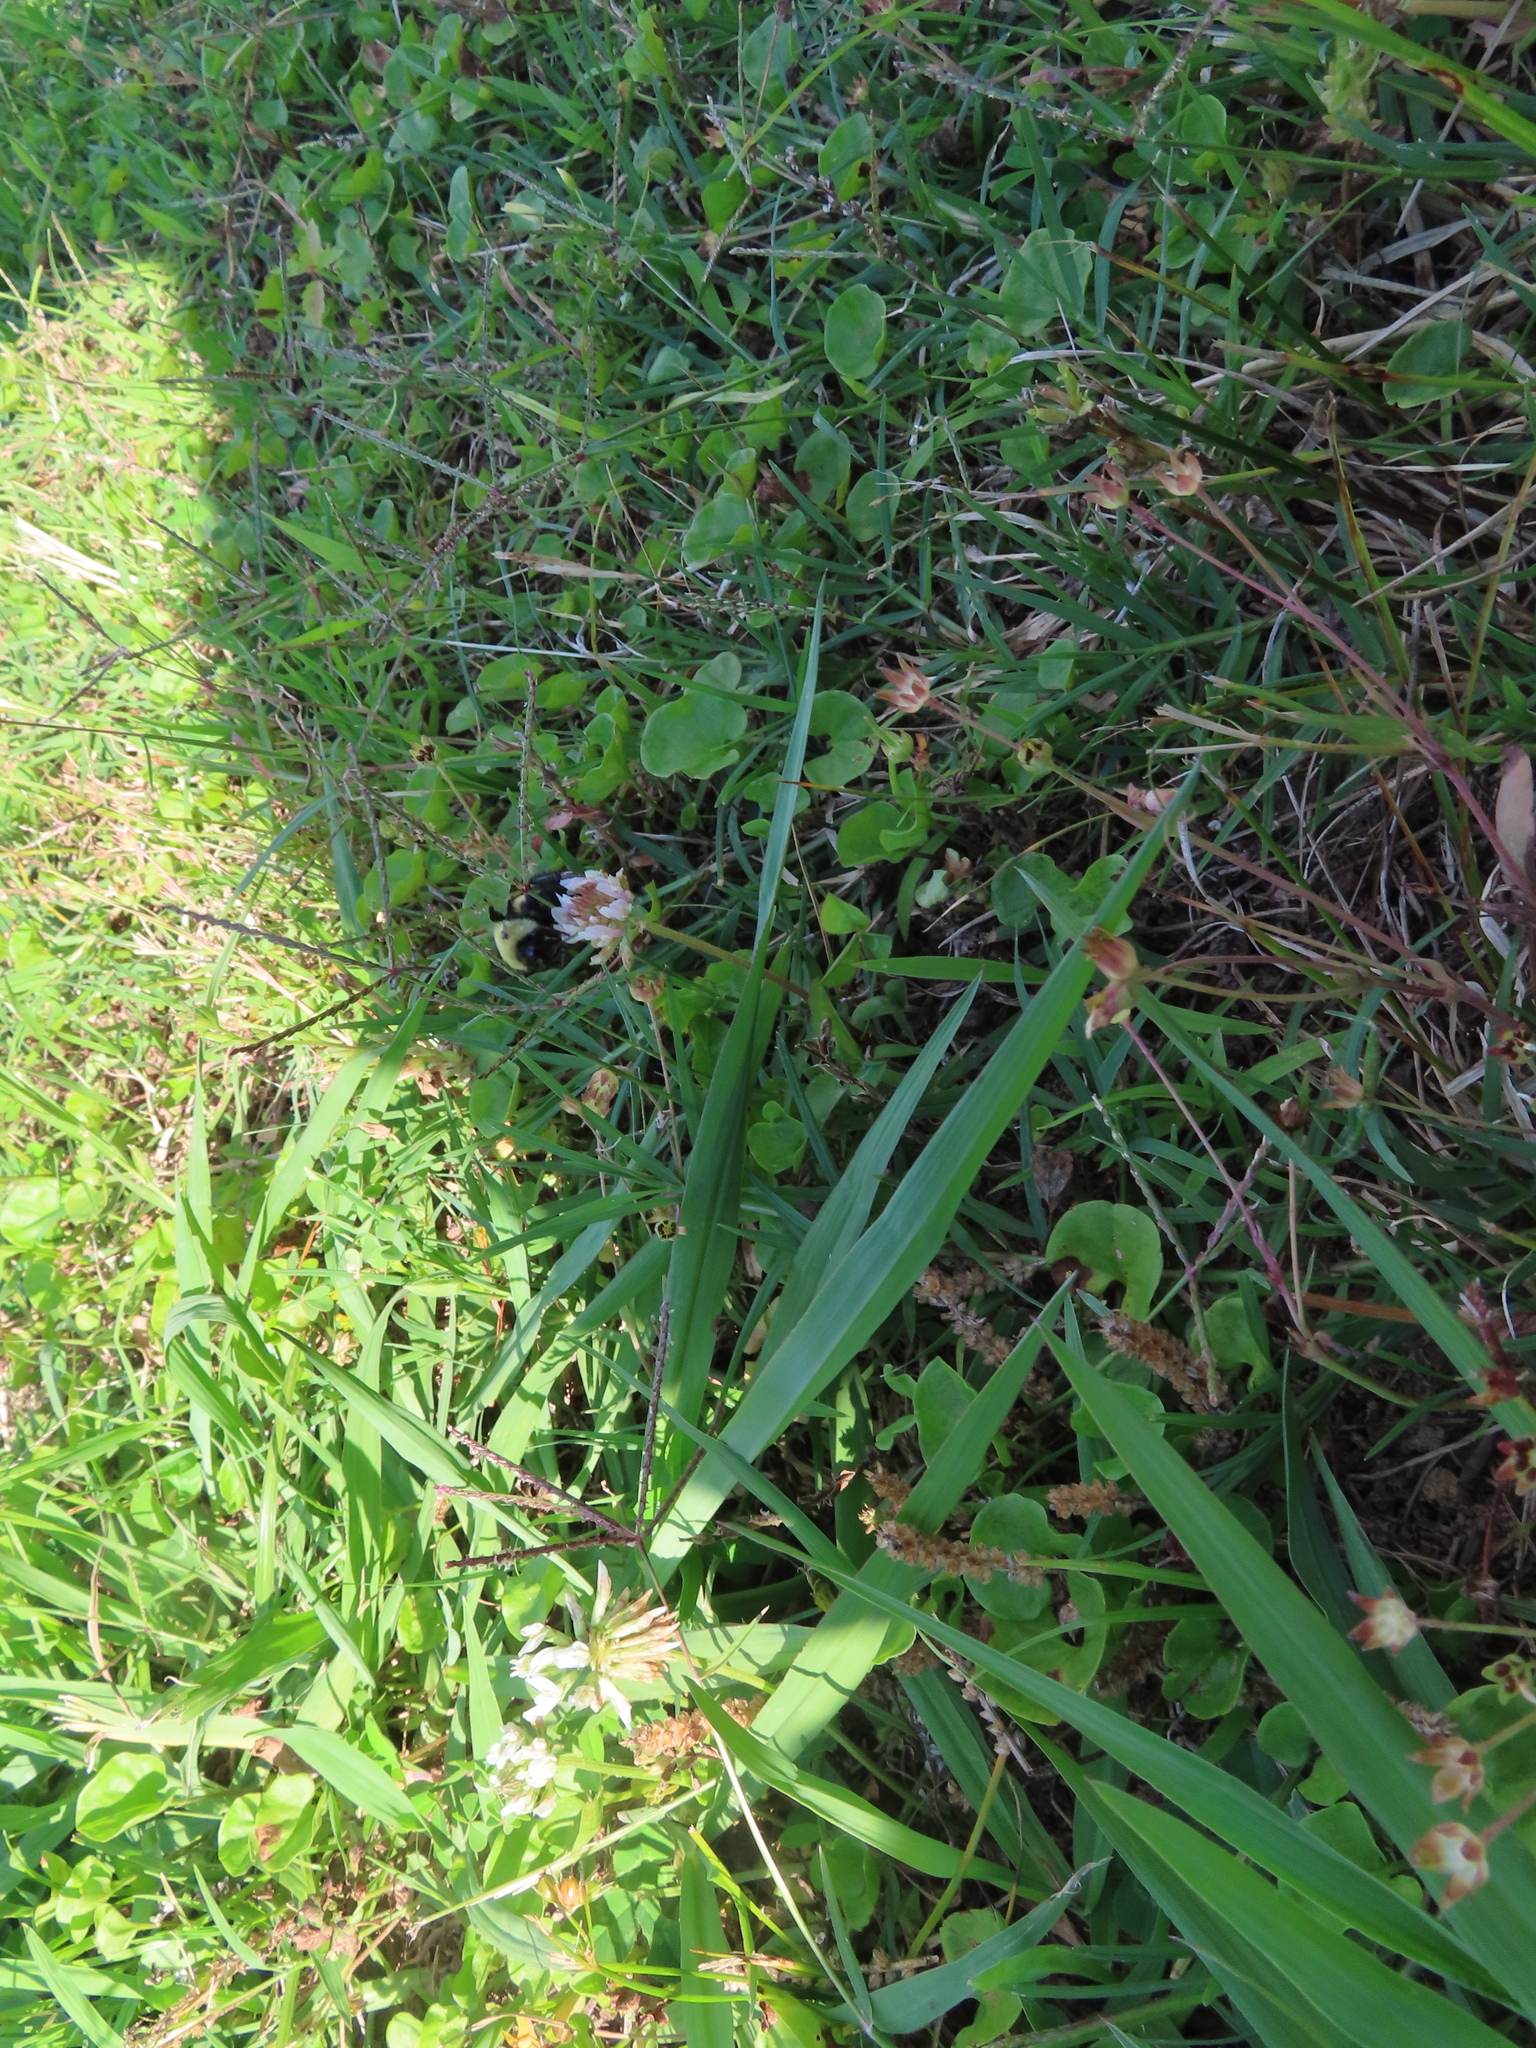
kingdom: Plantae
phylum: Tracheophyta
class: Magnoliopsida
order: Fabales
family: Fabaceae
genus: Trifolium
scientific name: Trifolium repens
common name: White clover
